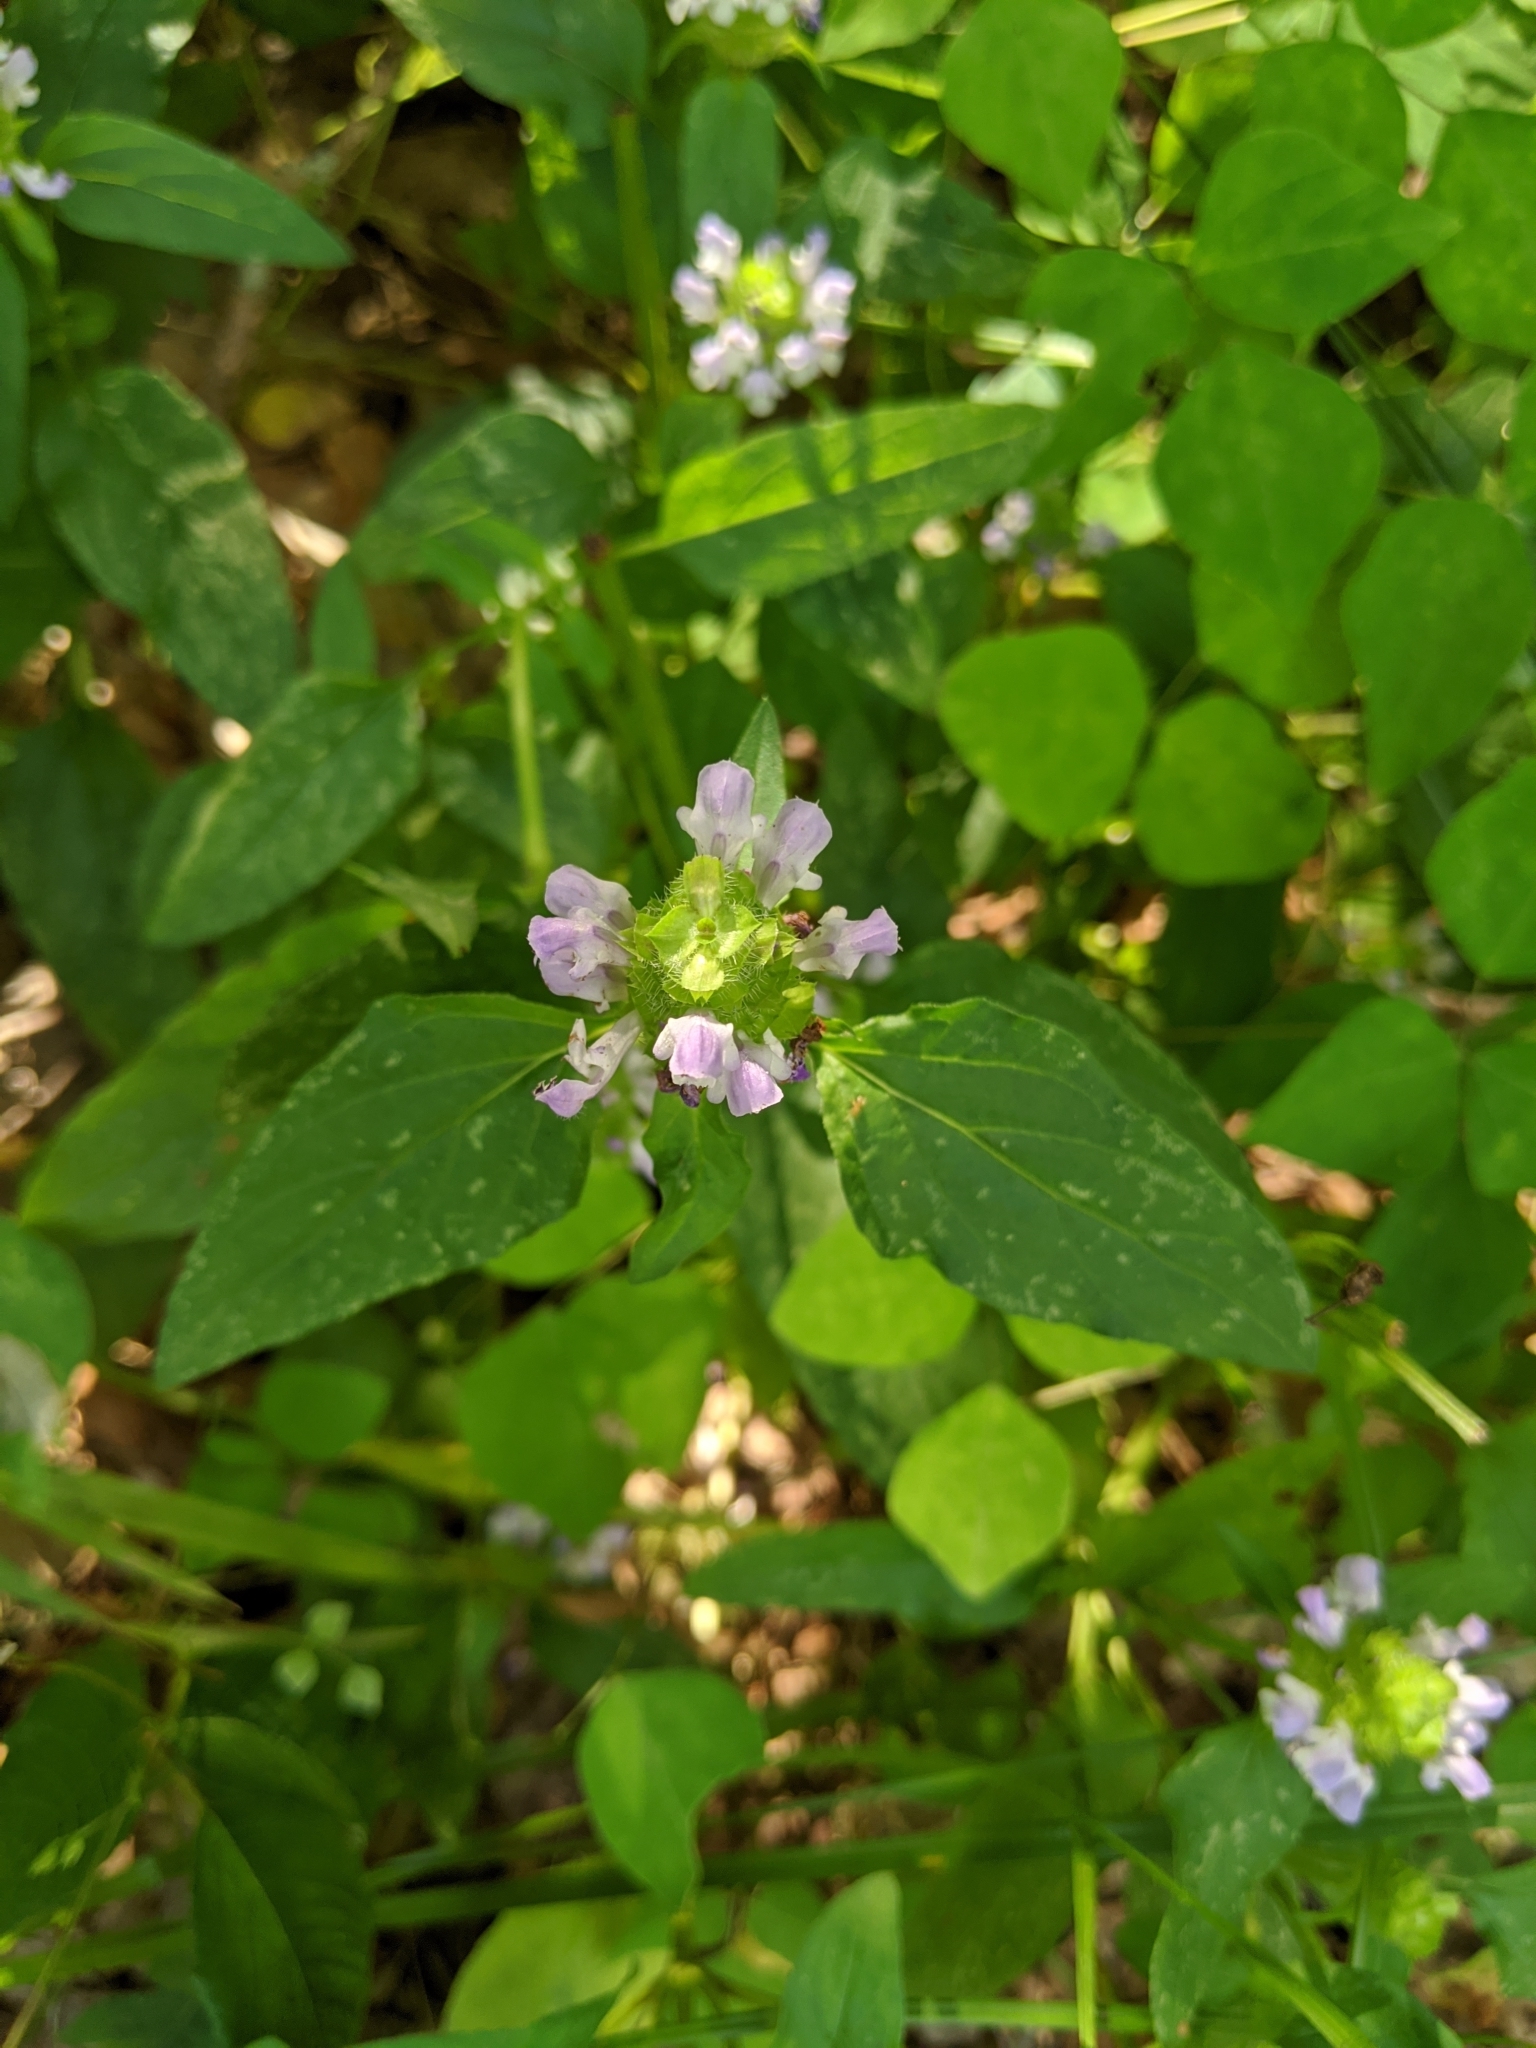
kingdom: Plantae
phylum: Tracheophyta
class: Magnoliopsida
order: Lamiales
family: Lamiaceae
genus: Prunella
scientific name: Prunella vulgaris
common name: Heal-all
